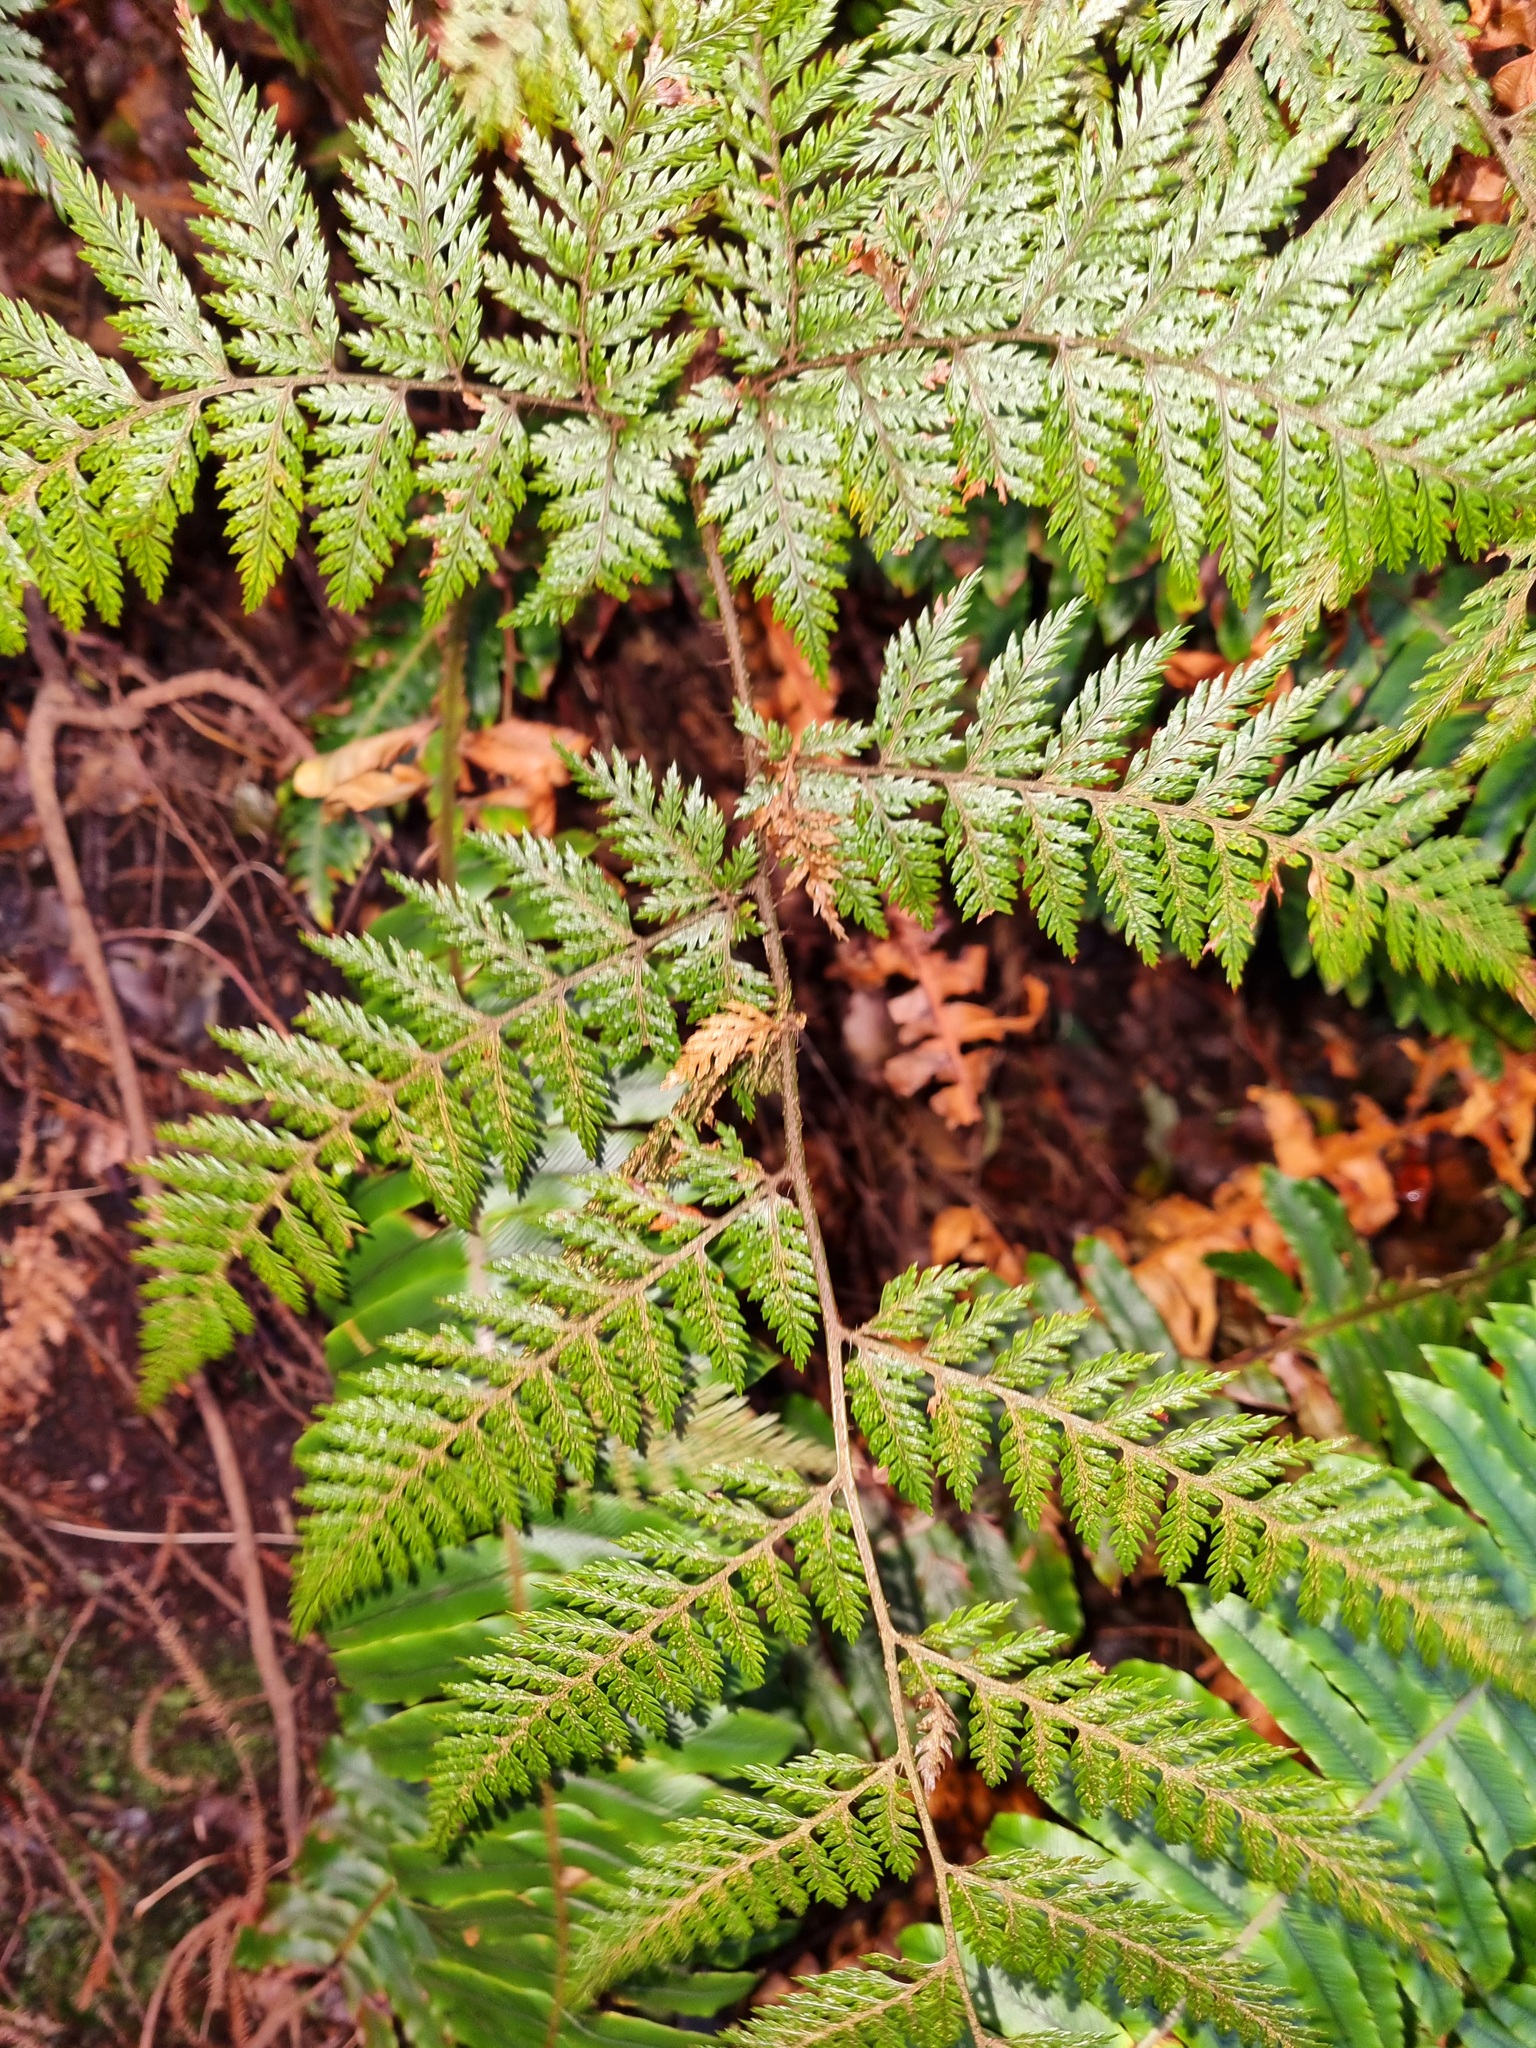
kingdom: Plantae
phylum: Tracheophyta
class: Polypodiopsida
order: Polypodiales
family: Dryopteridaceae
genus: Lastreopsis
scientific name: Lastreopsis hispida
